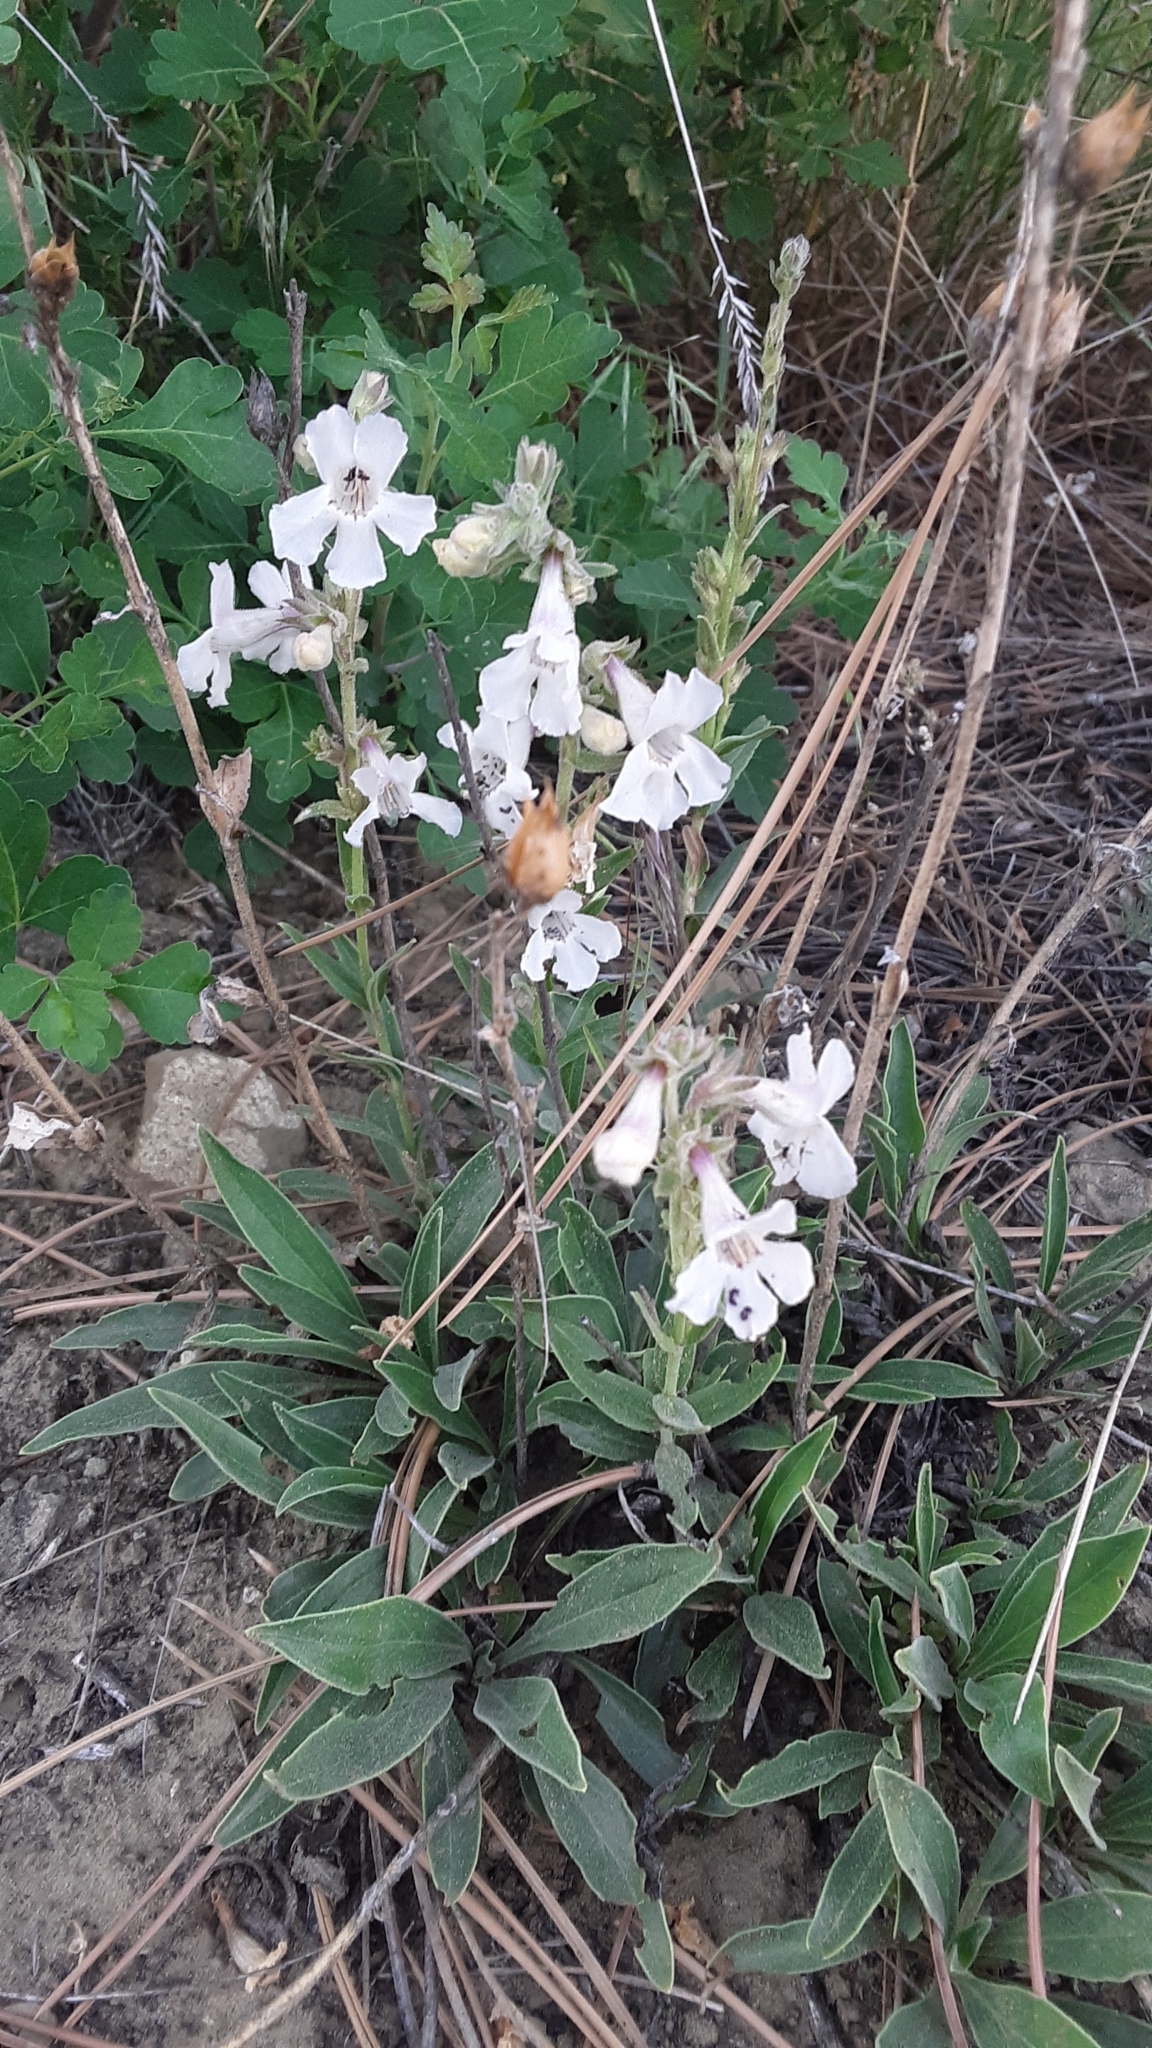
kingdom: Plantae
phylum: Tracheophyta
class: Magnoliopsida
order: Lamiales
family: Plantaginaceae
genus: Penstemon
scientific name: Penstemon albidus
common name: White beardtongue
